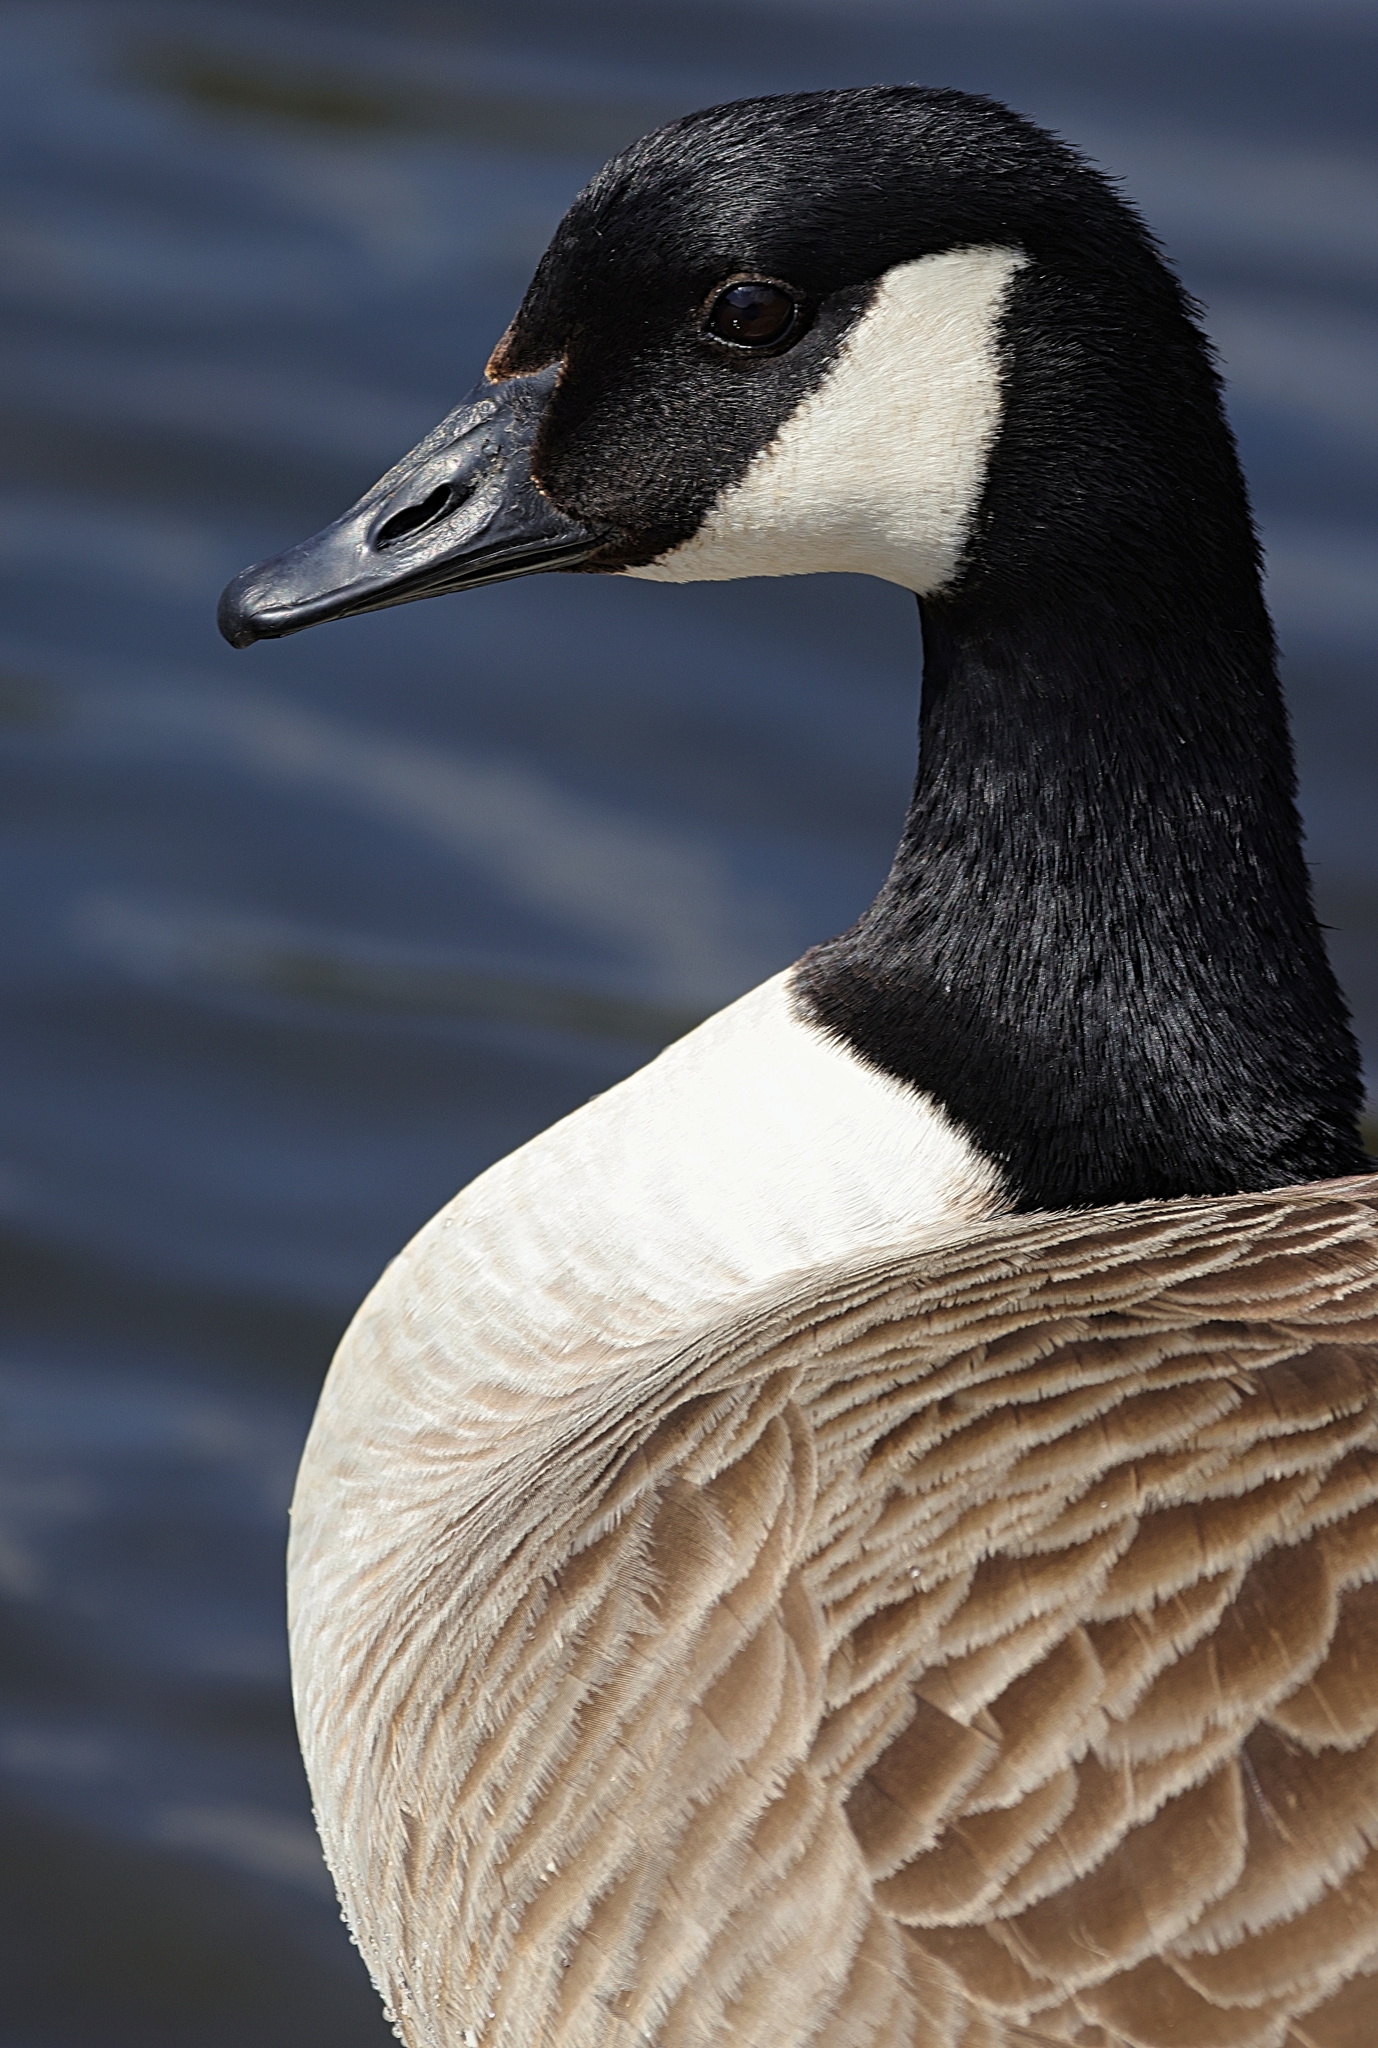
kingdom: Animalia
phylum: Chordata
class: Aves
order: Anseriformes
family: Anatidae
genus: Branta
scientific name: Branta canadensis
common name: Canada goose
